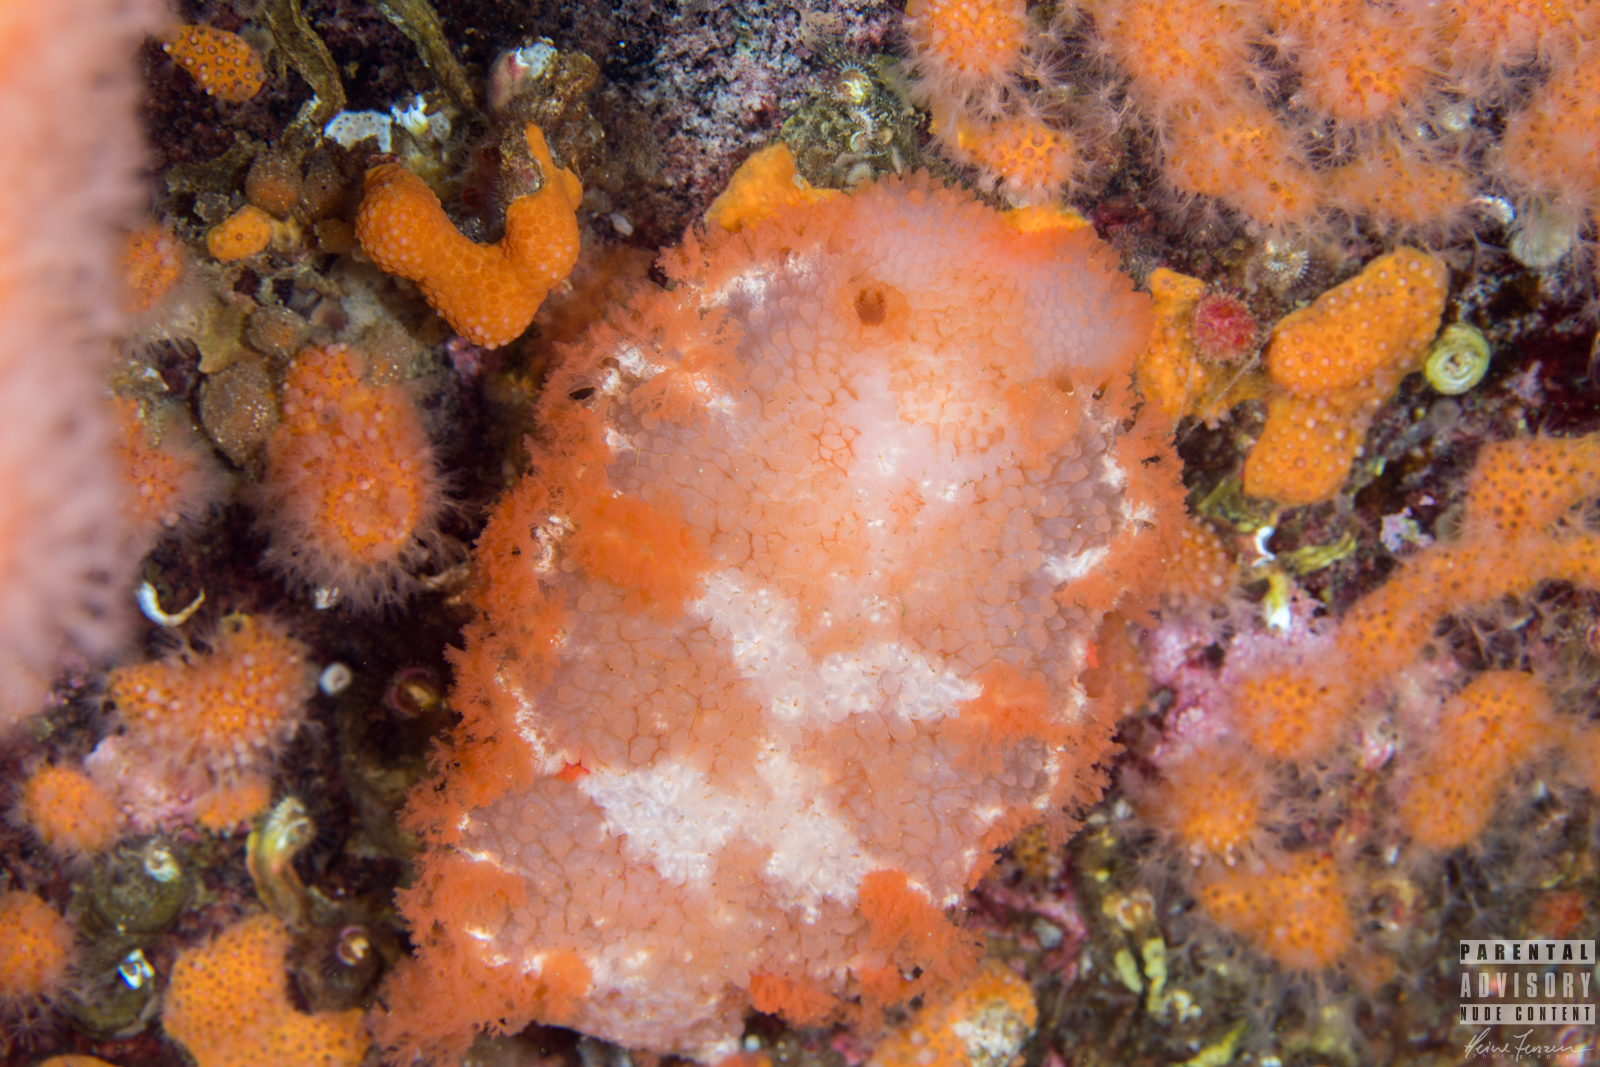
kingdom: Animalia
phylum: Mollusca
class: Gastropoda
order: Nudibranchia
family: Tritoniidae
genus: Tritonia
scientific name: Tritonia hombergii
